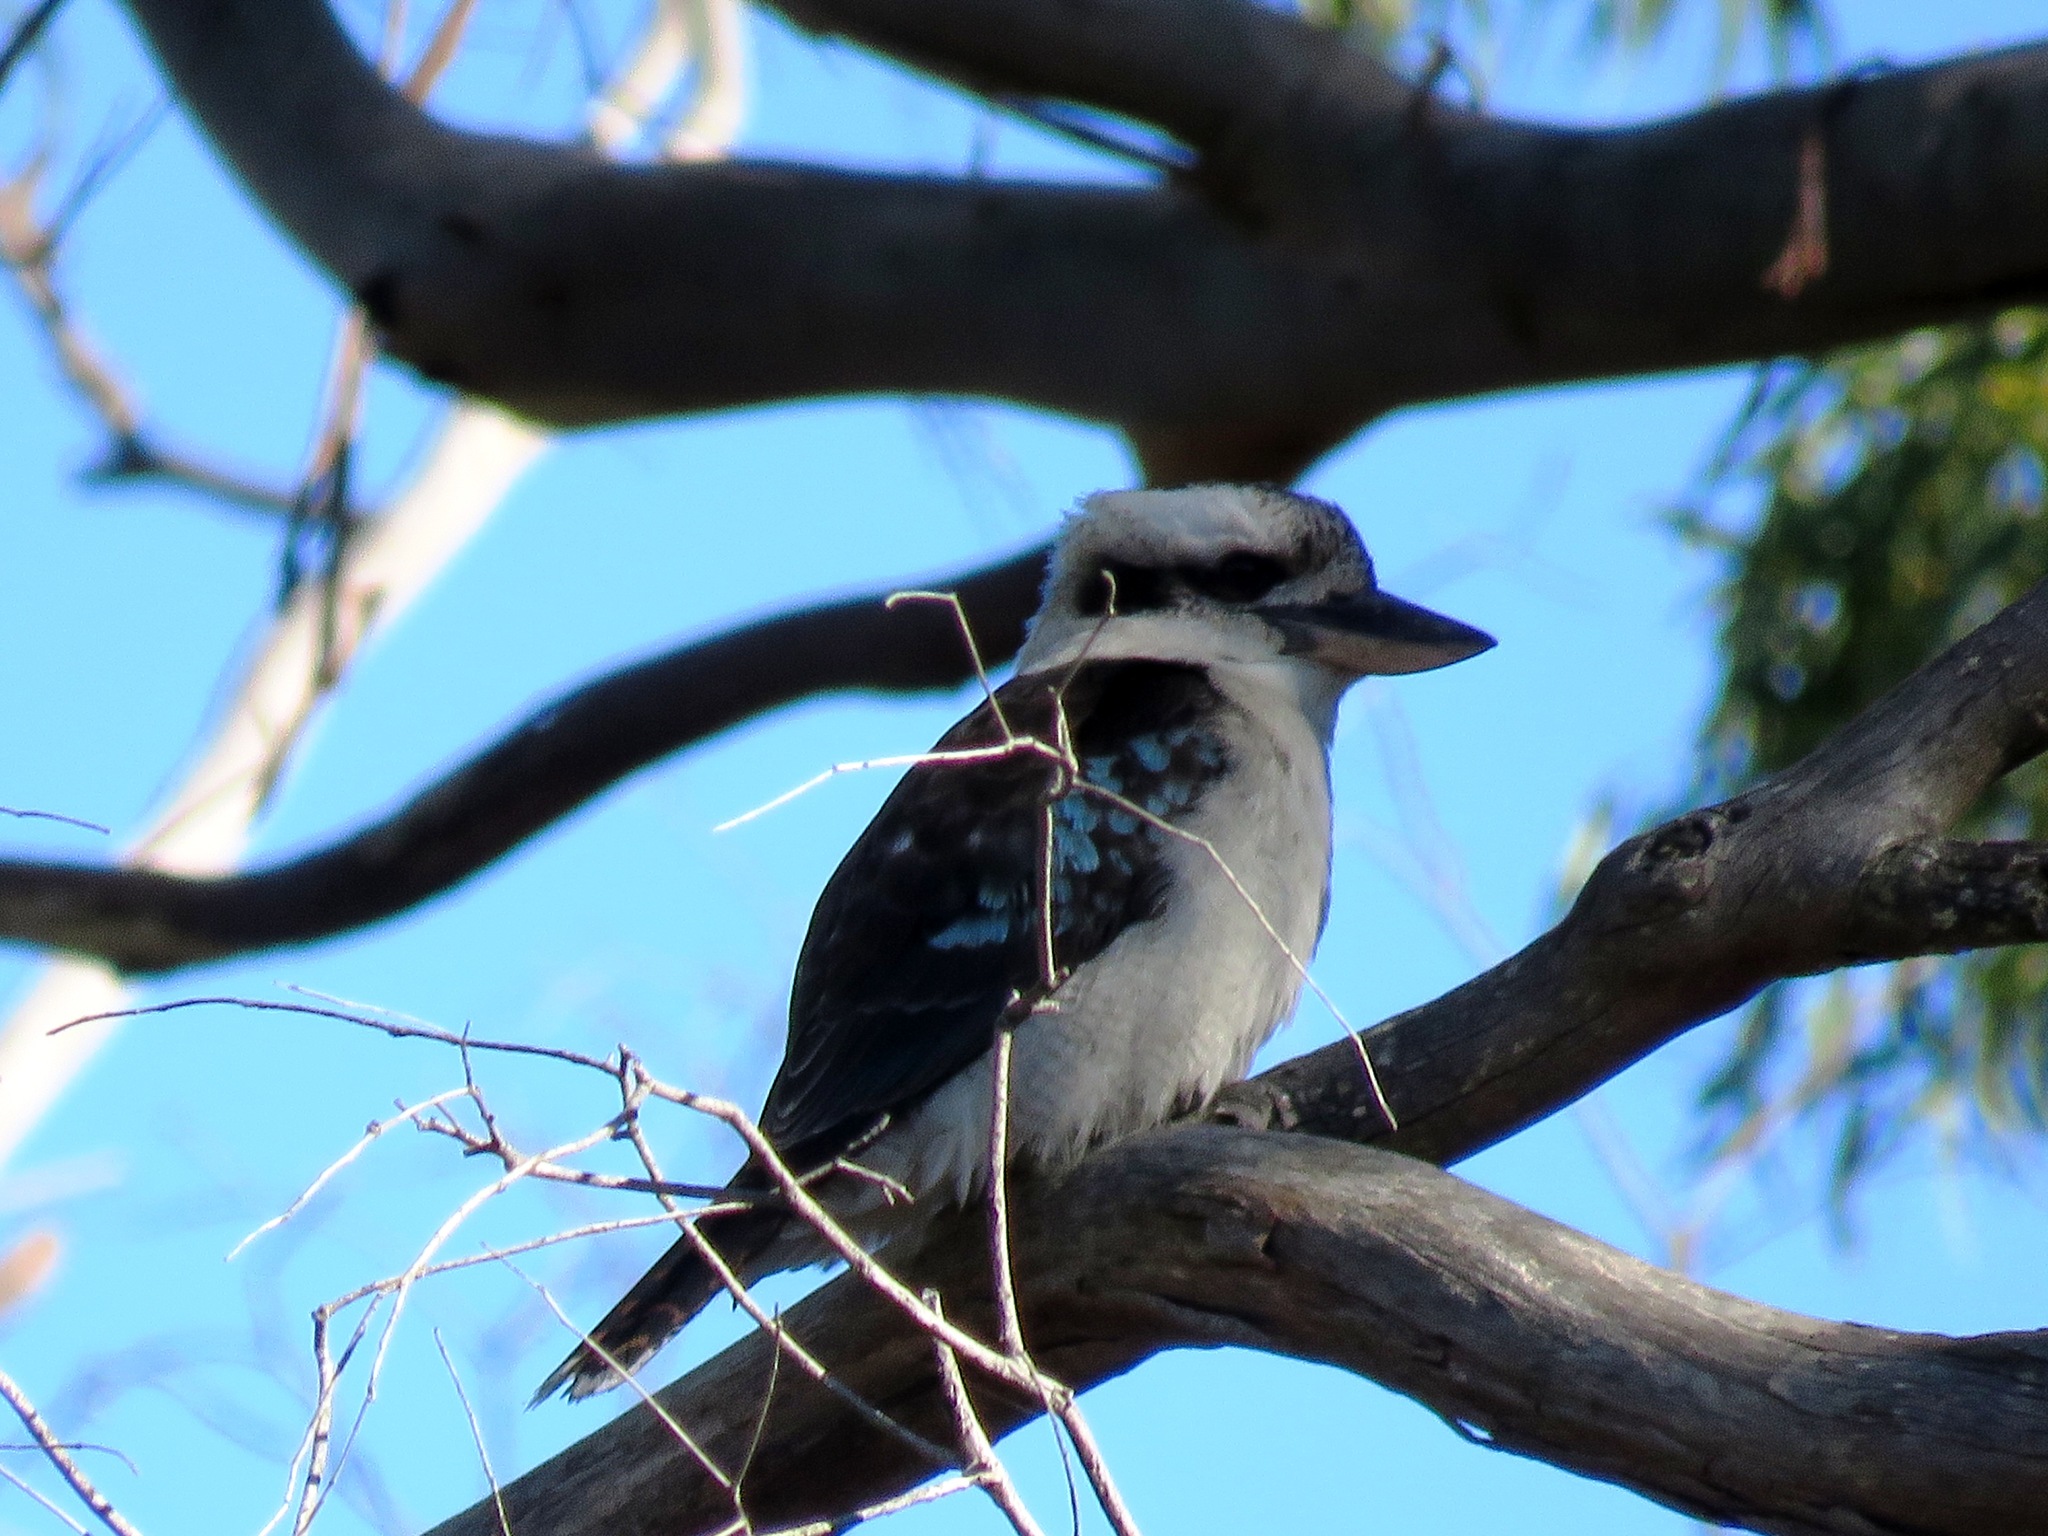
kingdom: Animalia
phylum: Chordata
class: Aves
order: Coraciiformes
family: Alcedinidae
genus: Dacelo
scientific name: Dacelo novaeguineae
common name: Laughing kookaburra
